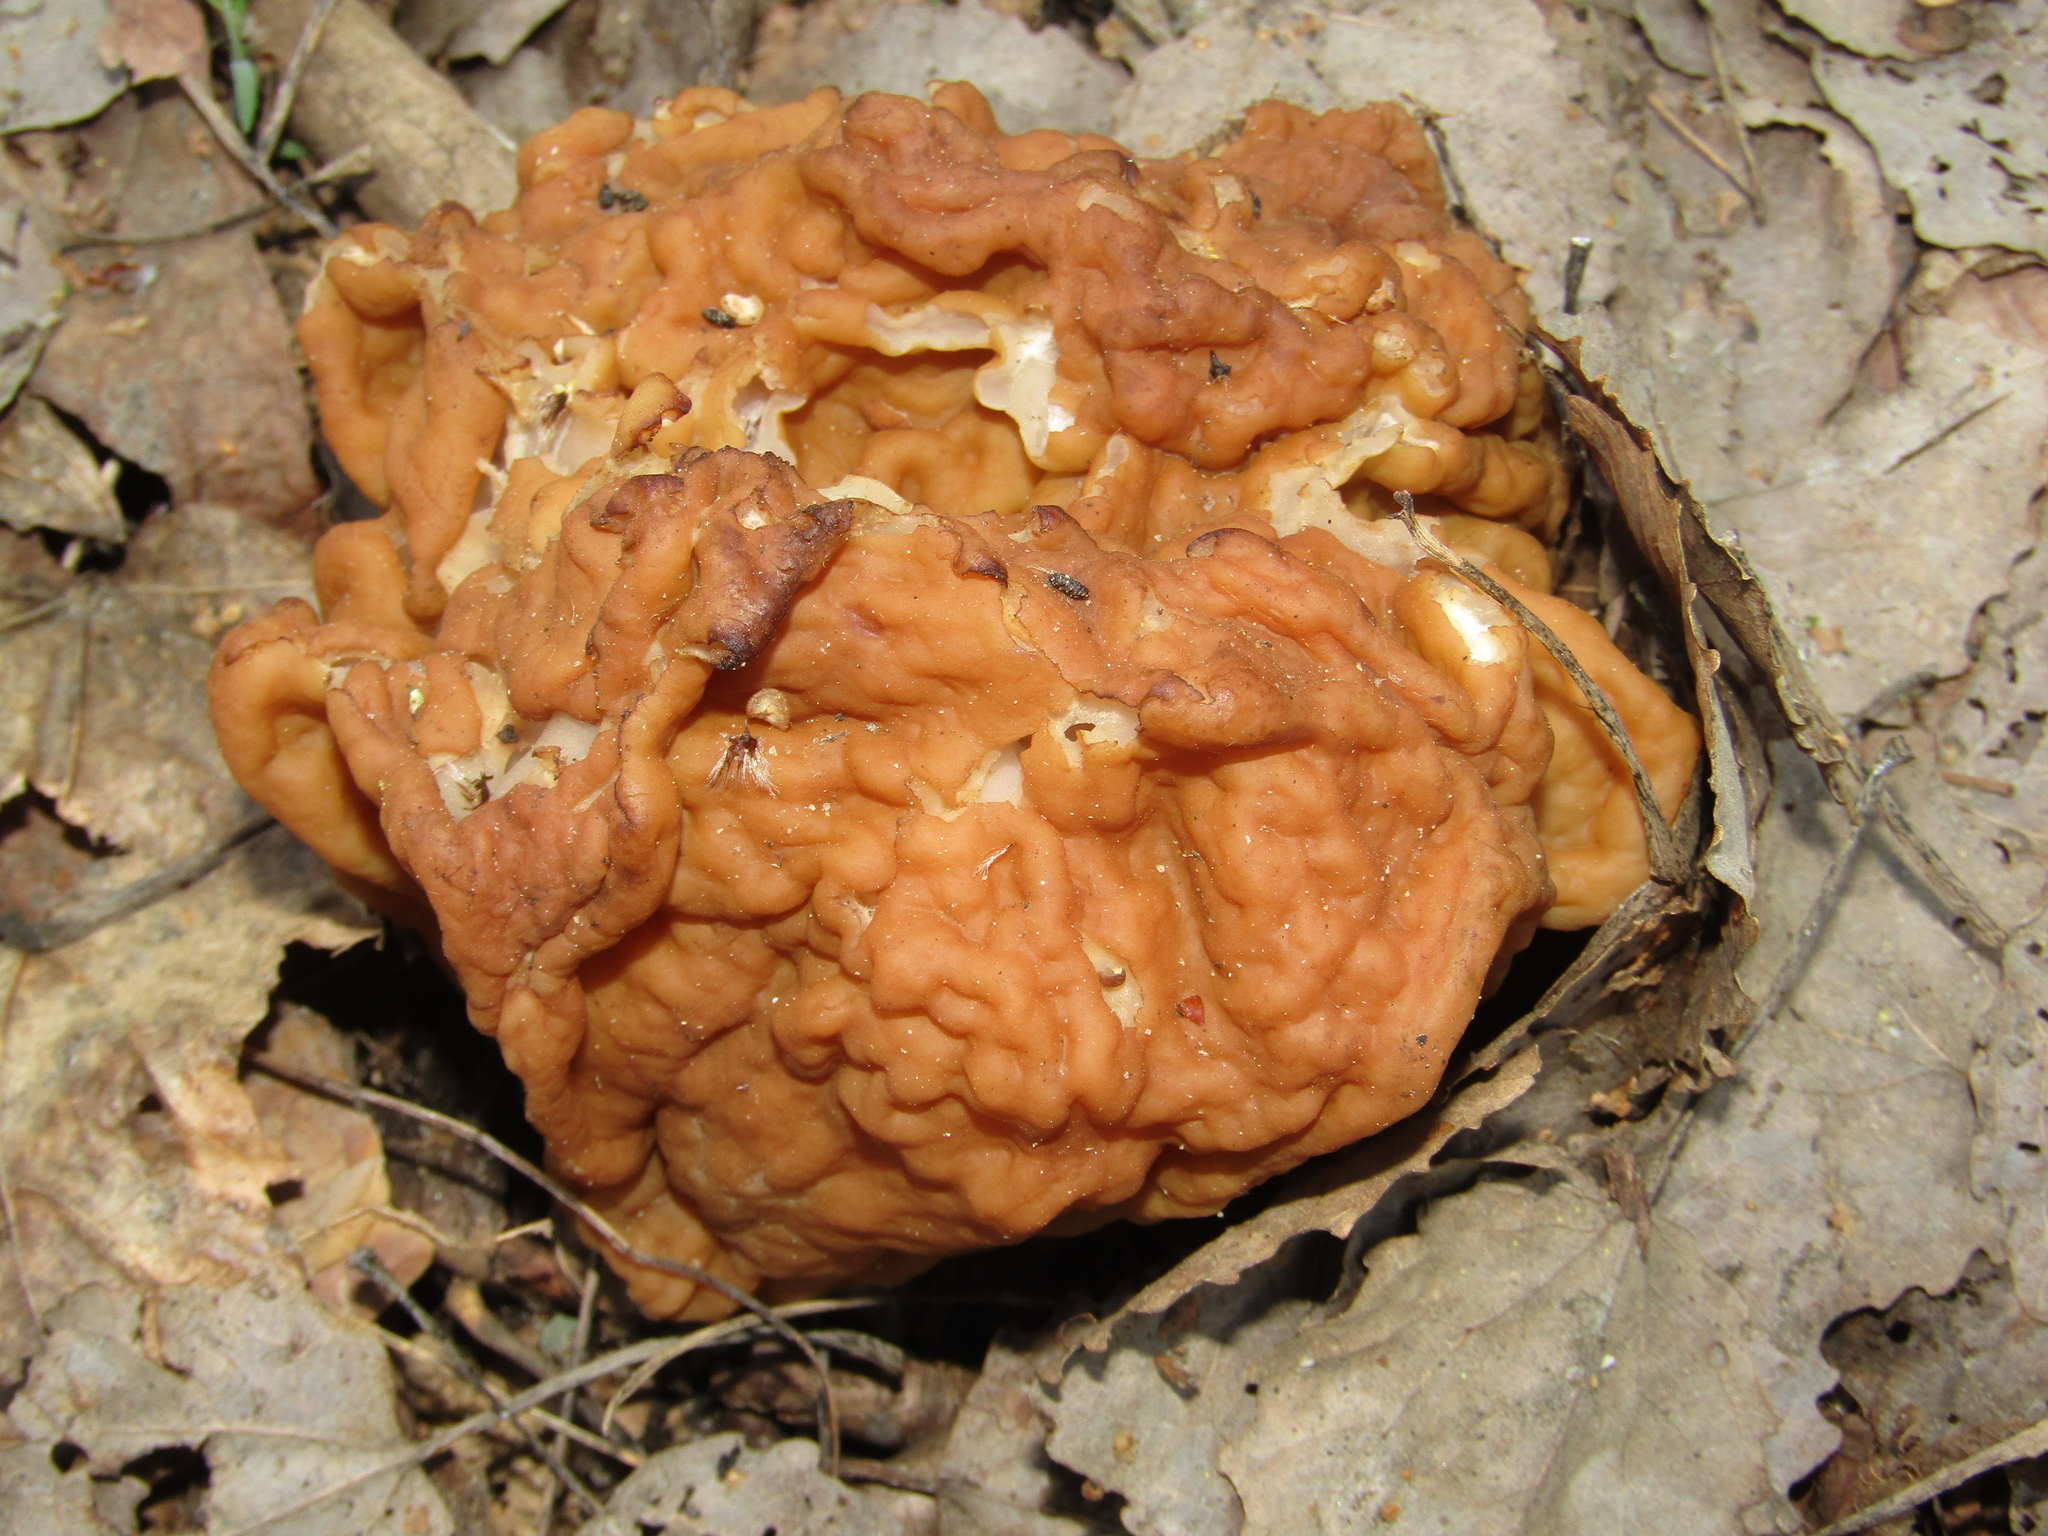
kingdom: Fungi
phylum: Ascomycota
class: Pezizomycetes
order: Pezizales
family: Discinaceae
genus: Gyromitra
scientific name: Gyromitra gigas
